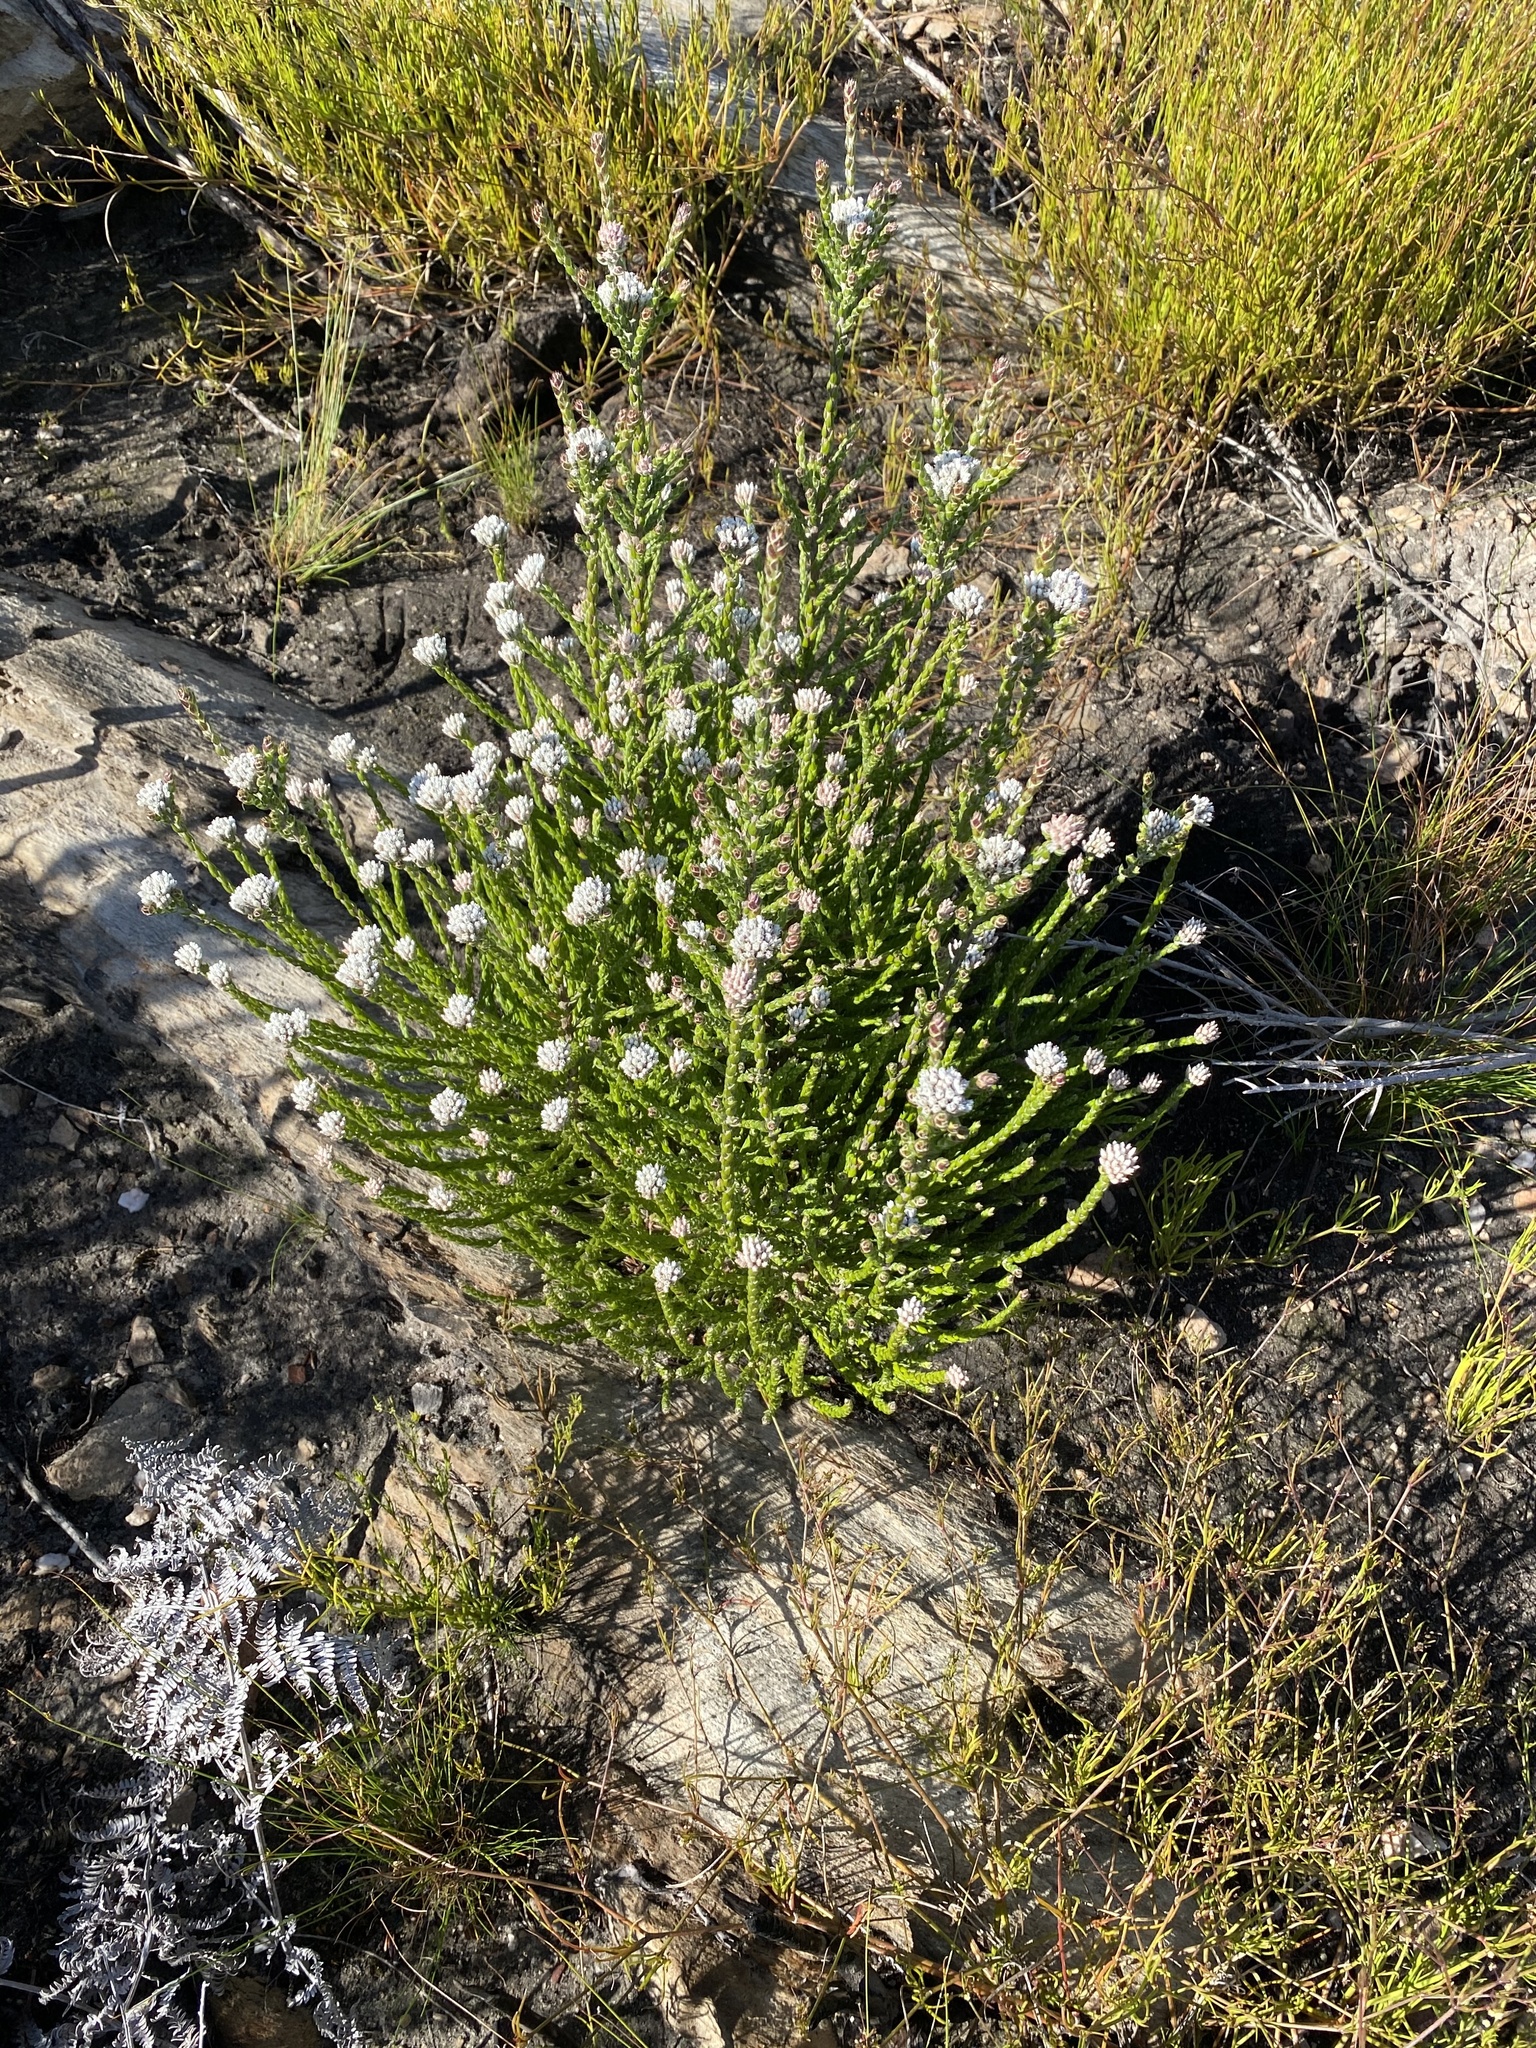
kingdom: Plantae
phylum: Tracheophyta
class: Magnoliopsida
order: Asterales
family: Asteraceae
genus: Metalasia
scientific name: Metalasia pulcherrima
